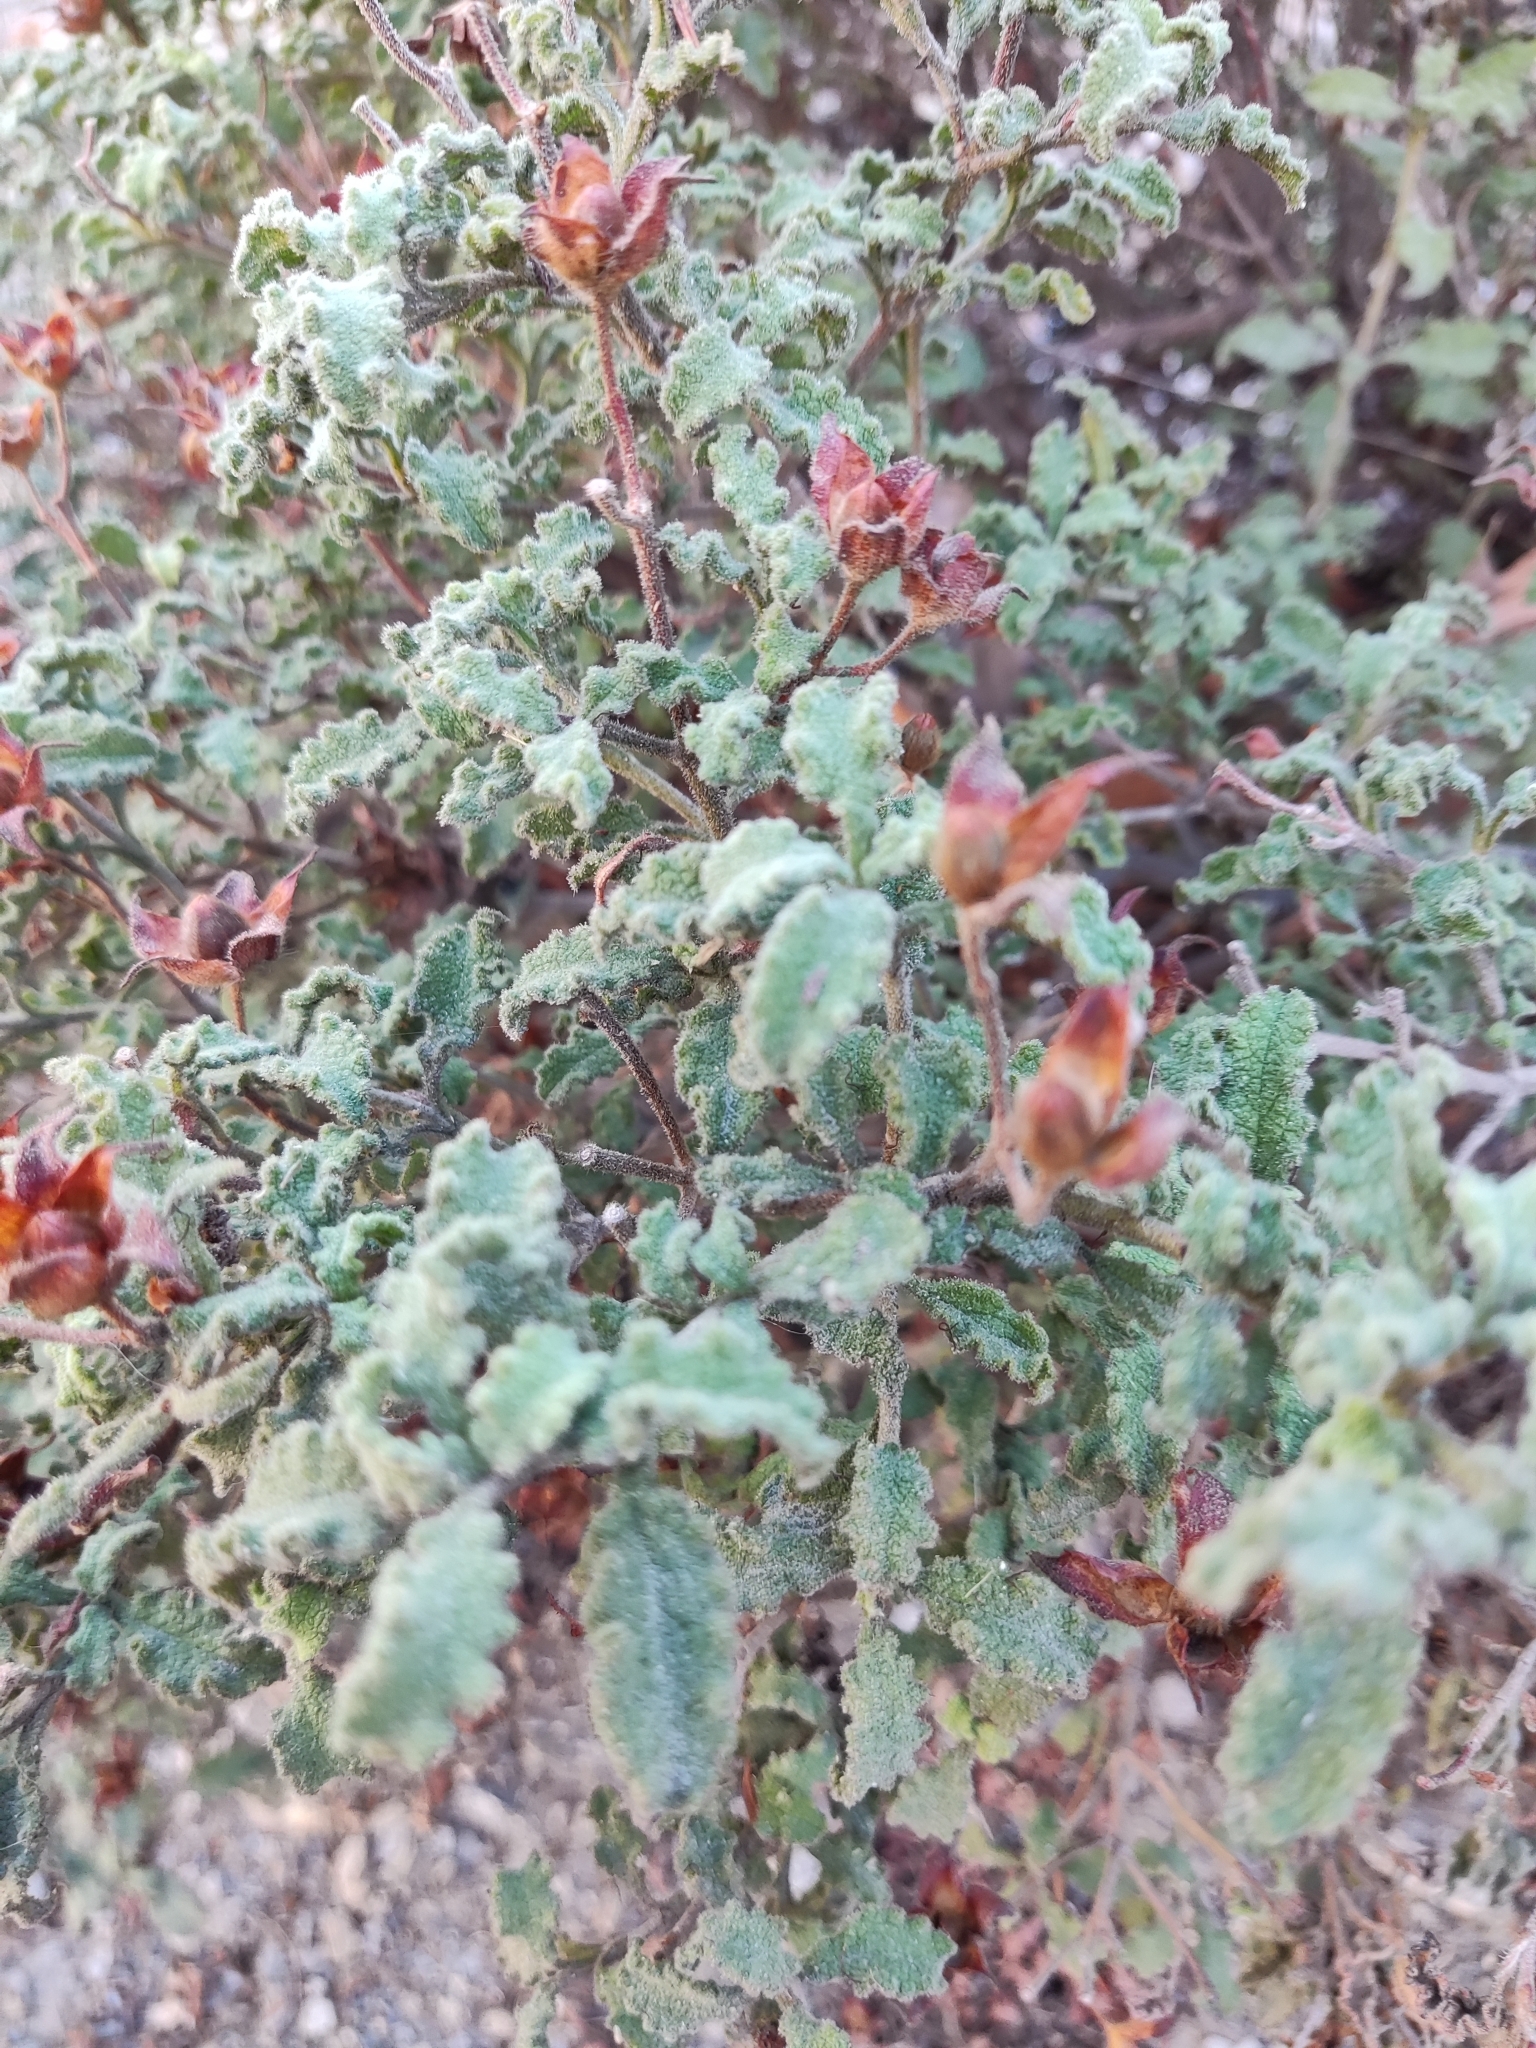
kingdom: Plantae
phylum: Tracheophyta
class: Magnoliopsida
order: Malvales
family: Cistaceae
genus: Cistus
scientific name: Cistus creticus
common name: Cretan rockrose
